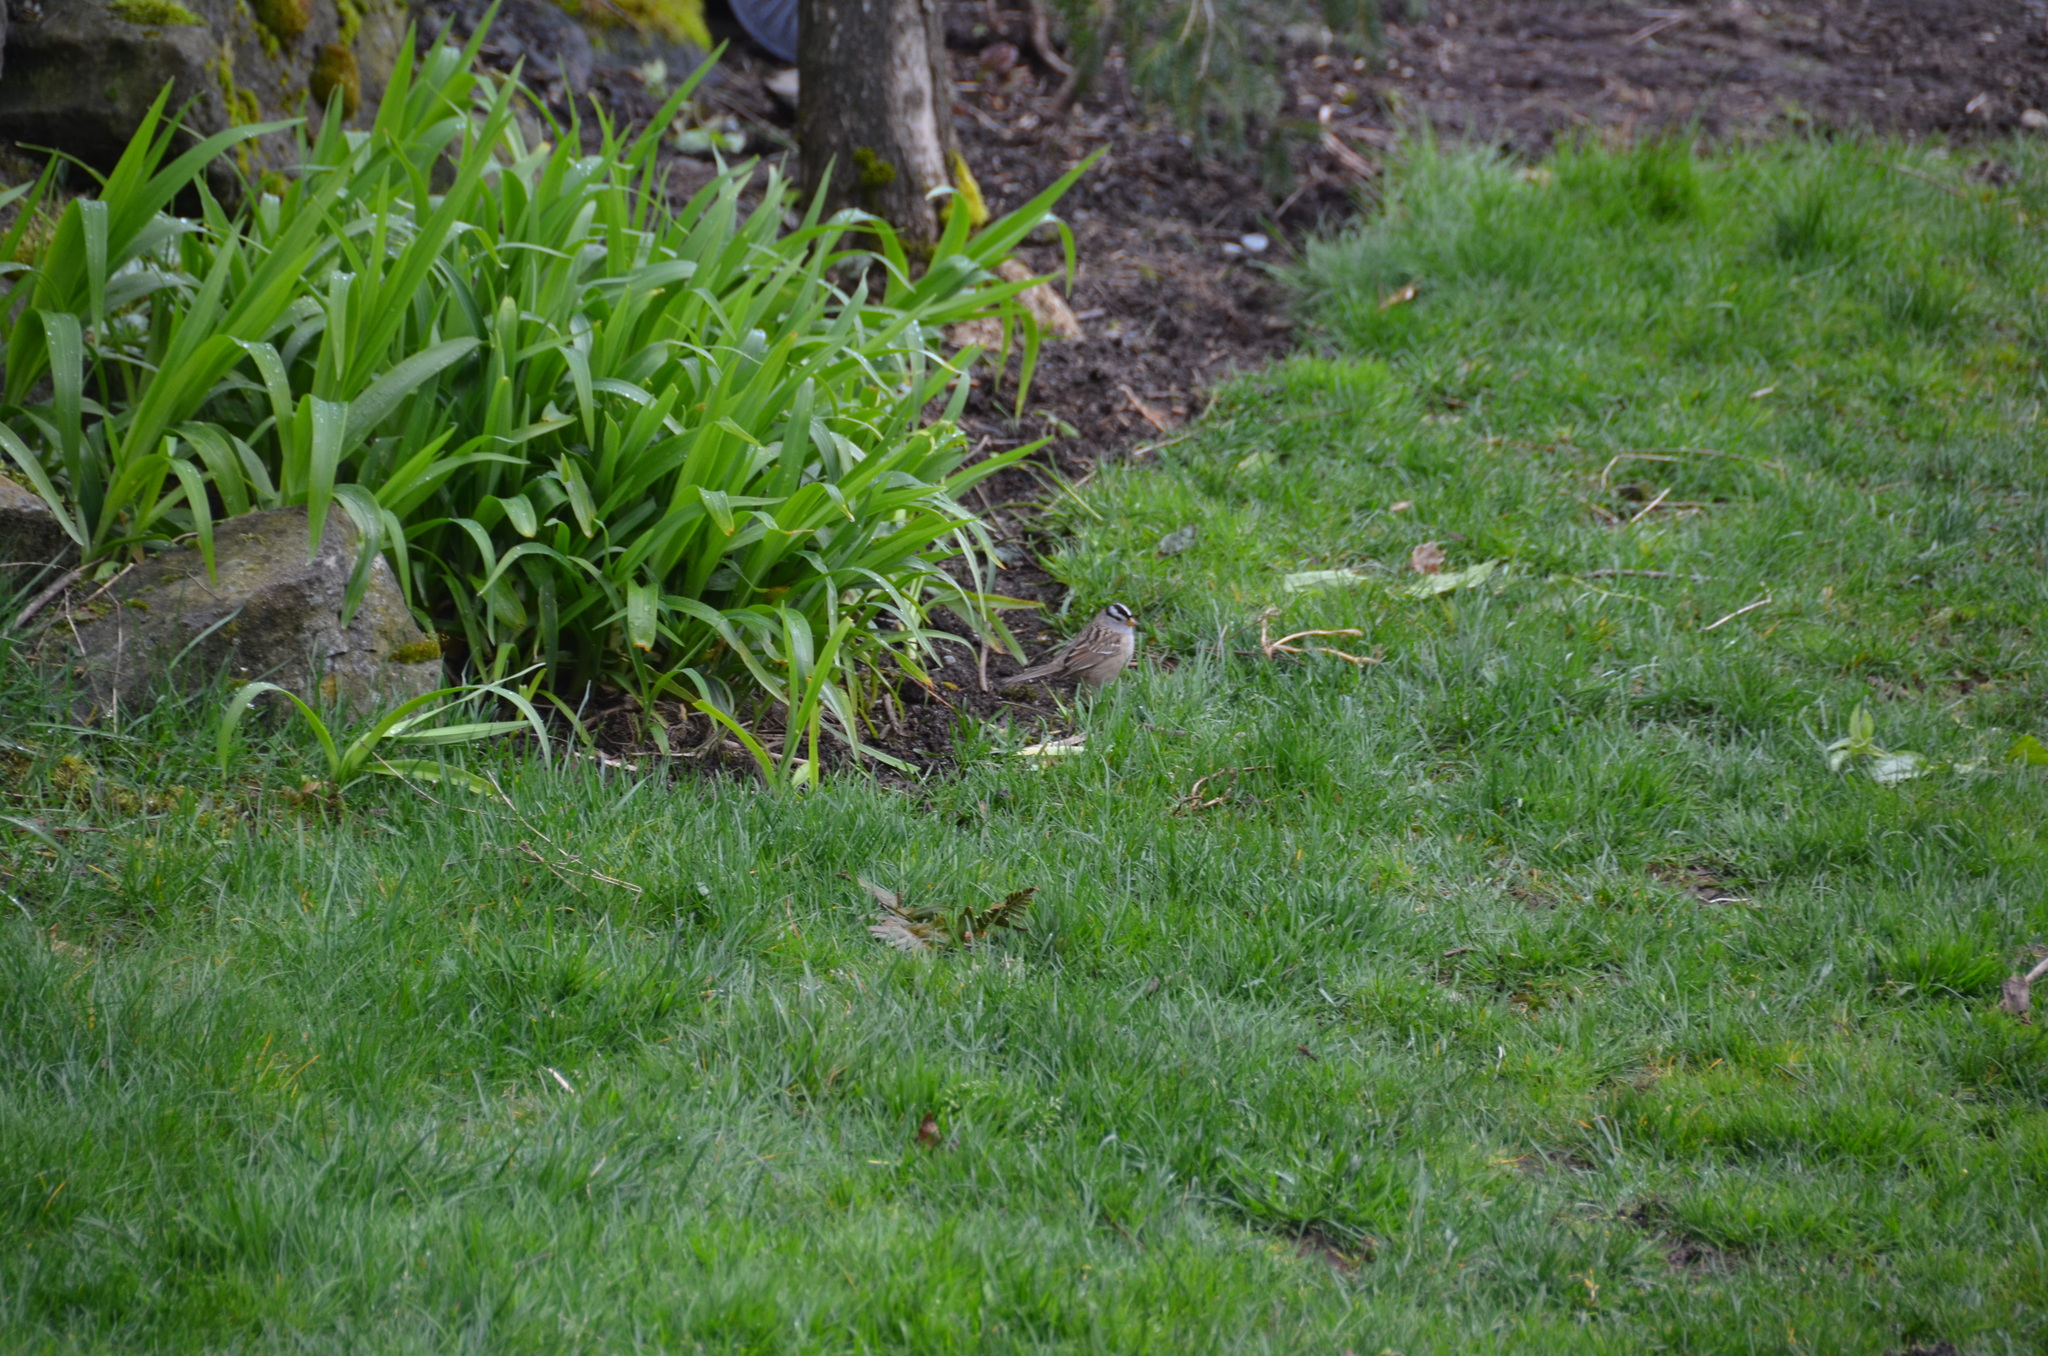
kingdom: Animalia
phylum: Chordata
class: Aves
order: Passeriformes
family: Passerellidae
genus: Zonotrichia
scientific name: Zonotrichia leucophrys
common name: White-crowned sparrow
